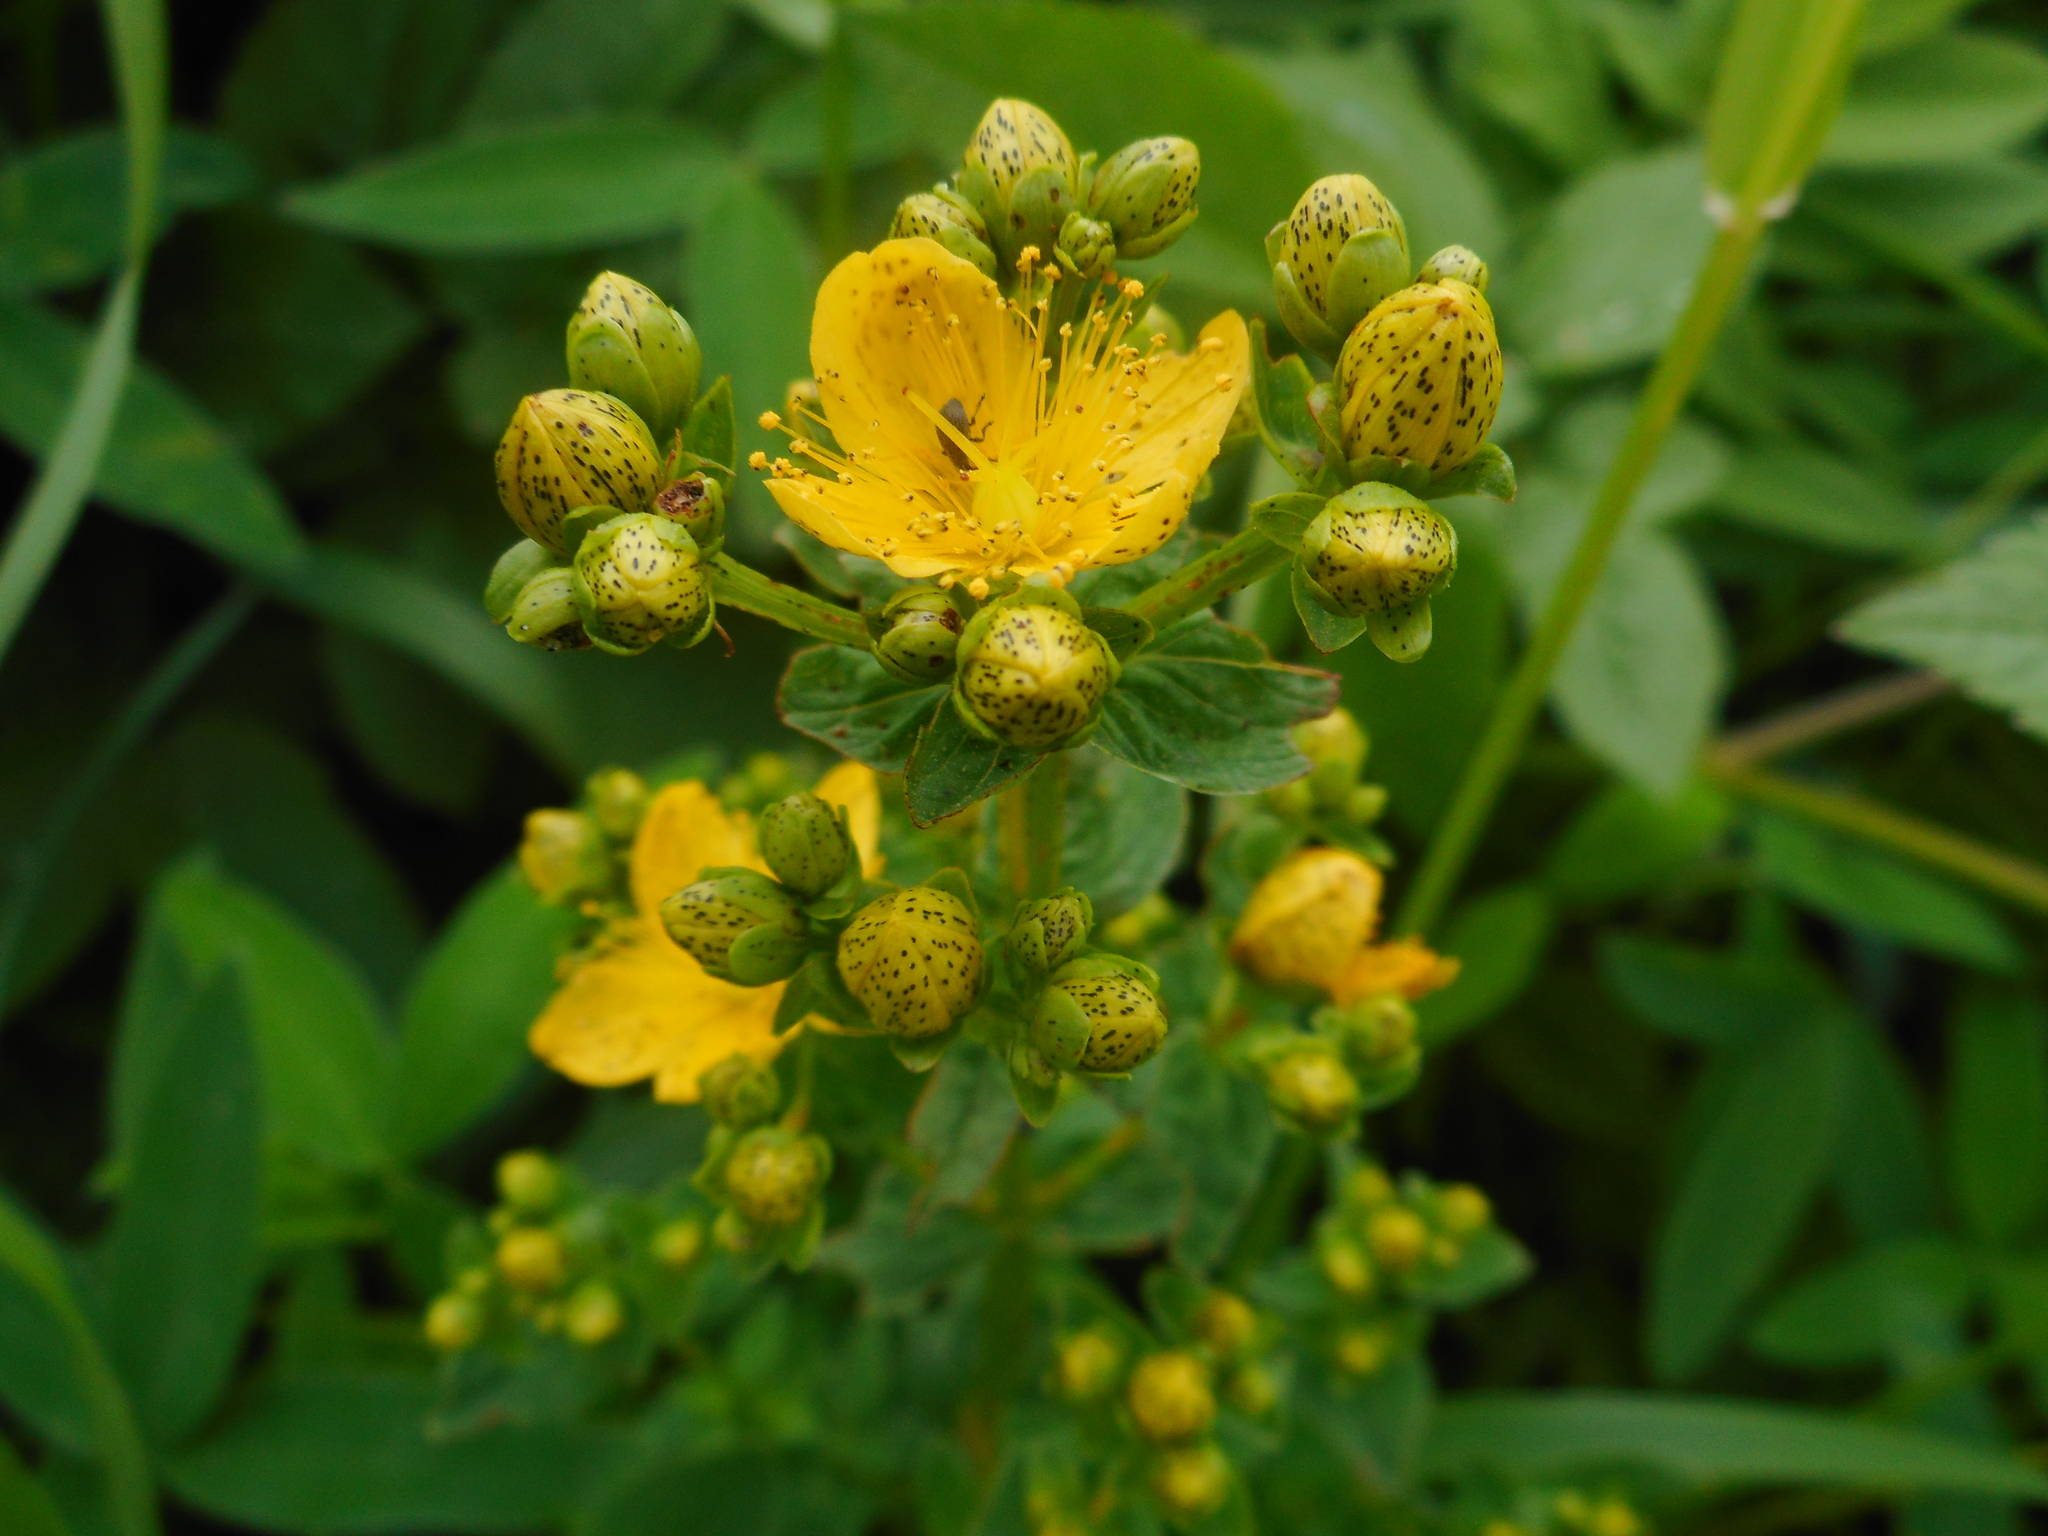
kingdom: Plantae
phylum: Tracheophyta
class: Magnoliopsida
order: Malpighiales
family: Hypericaceae
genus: Hypericum
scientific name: Hypericum maculatum
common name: Imperforate st. john's-wort
